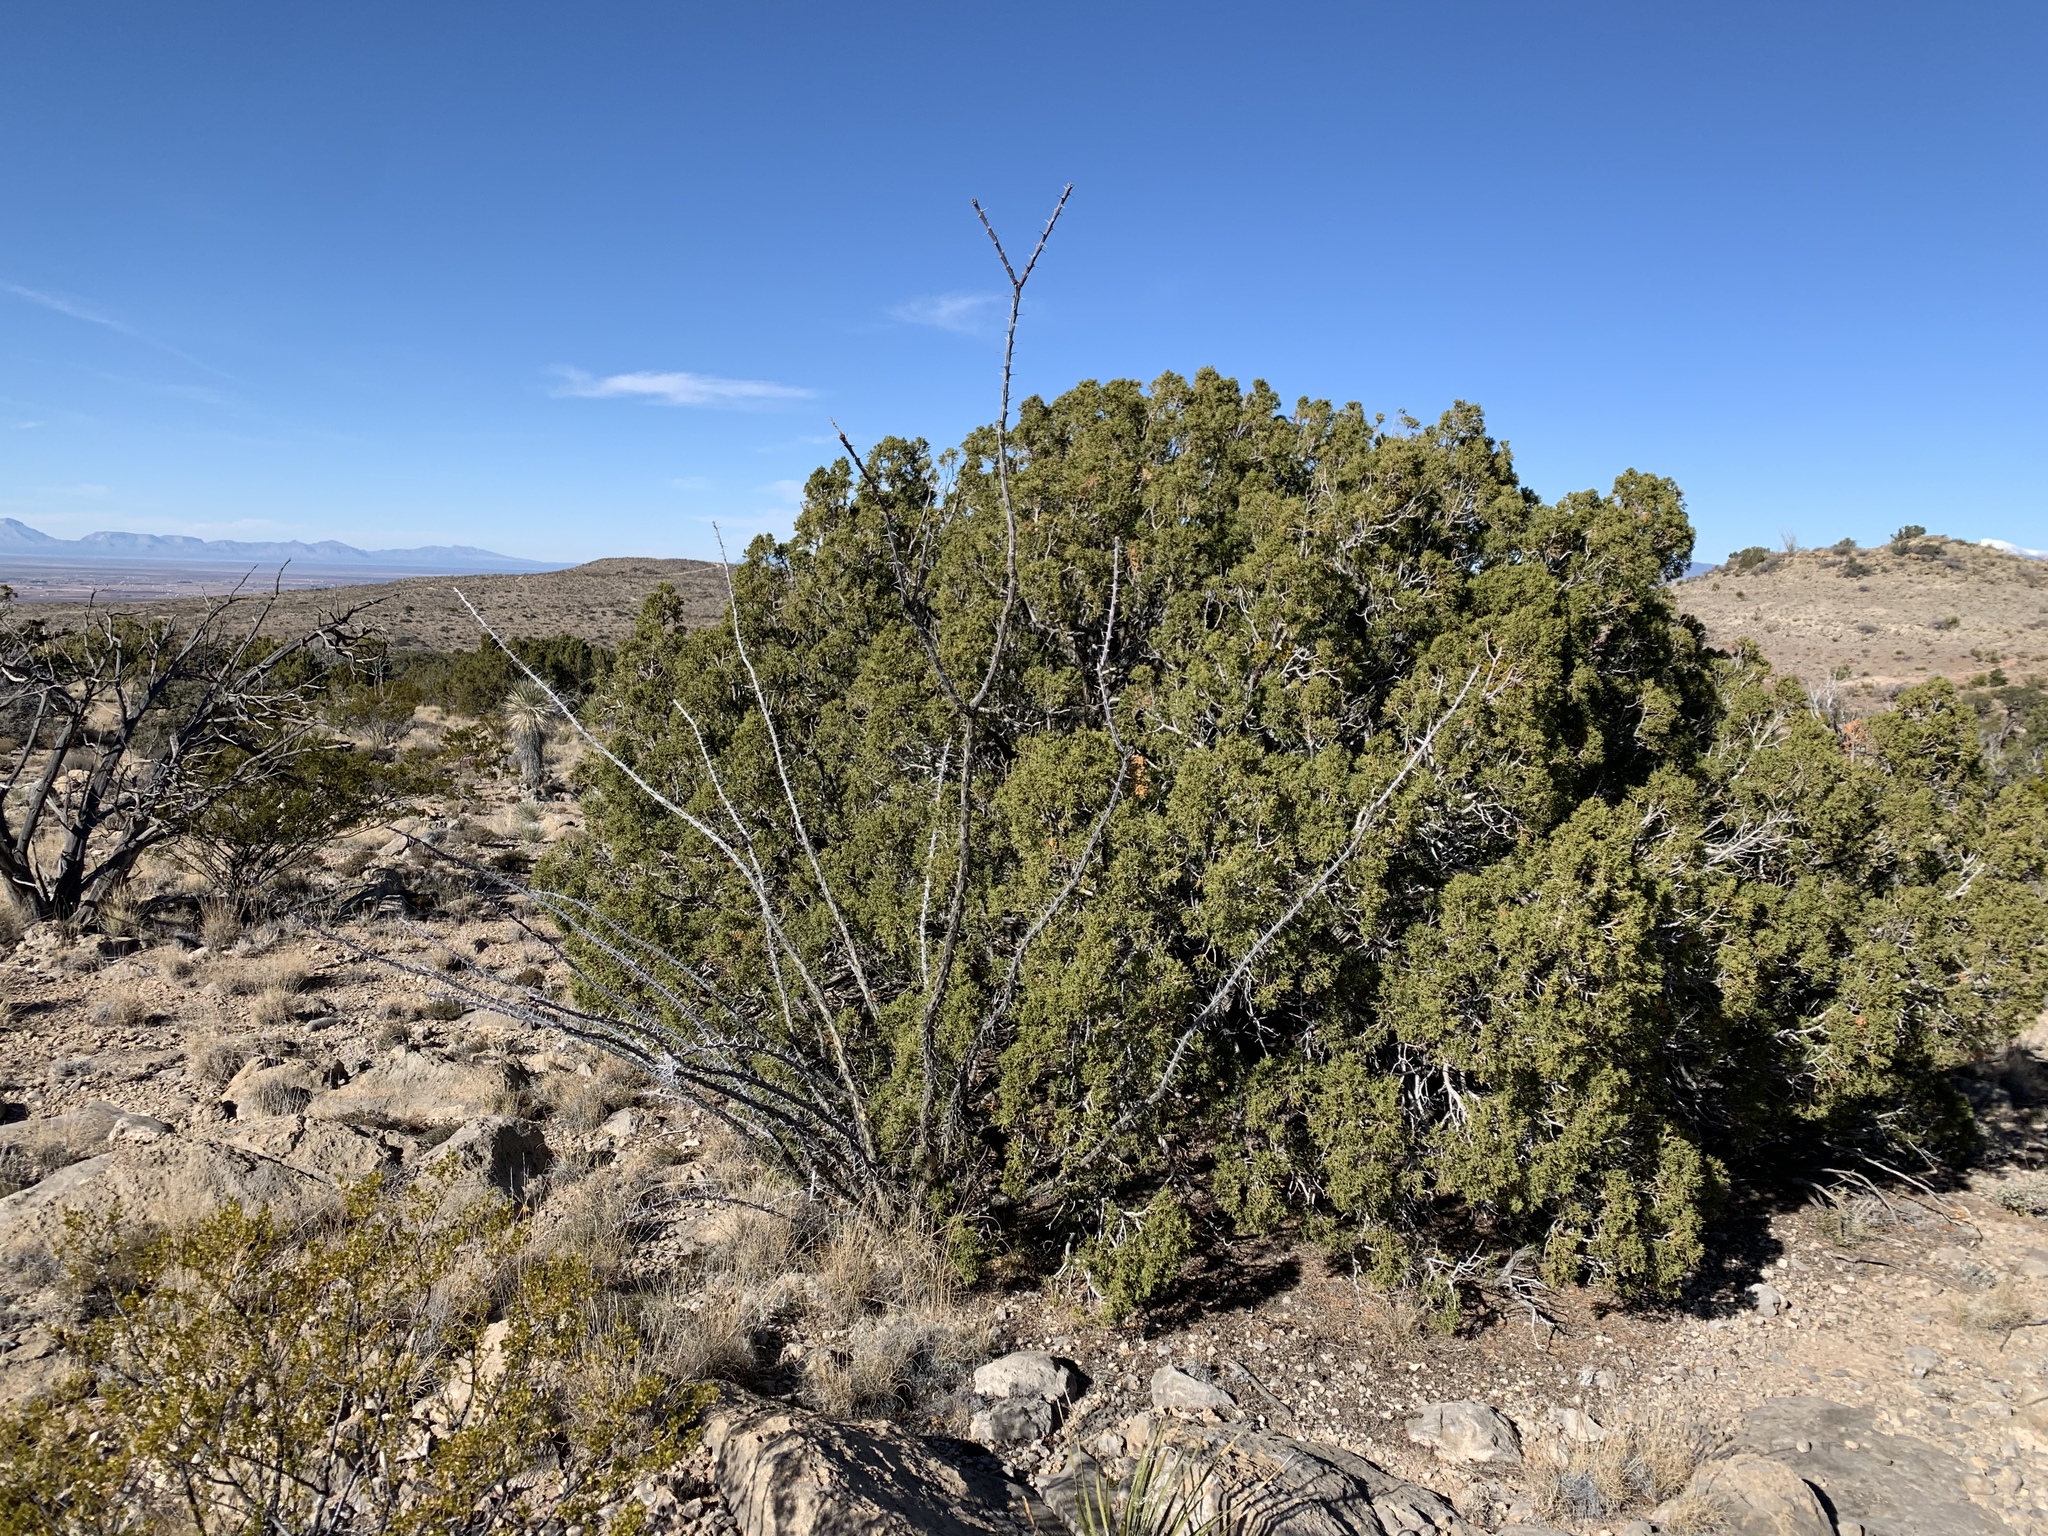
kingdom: Plantae
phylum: Tracheophyta
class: Magnoliopsida
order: Ericales
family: Fouquieriaceae
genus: Fouquieria
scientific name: Fouquieria splendens
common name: Vine-cactus
